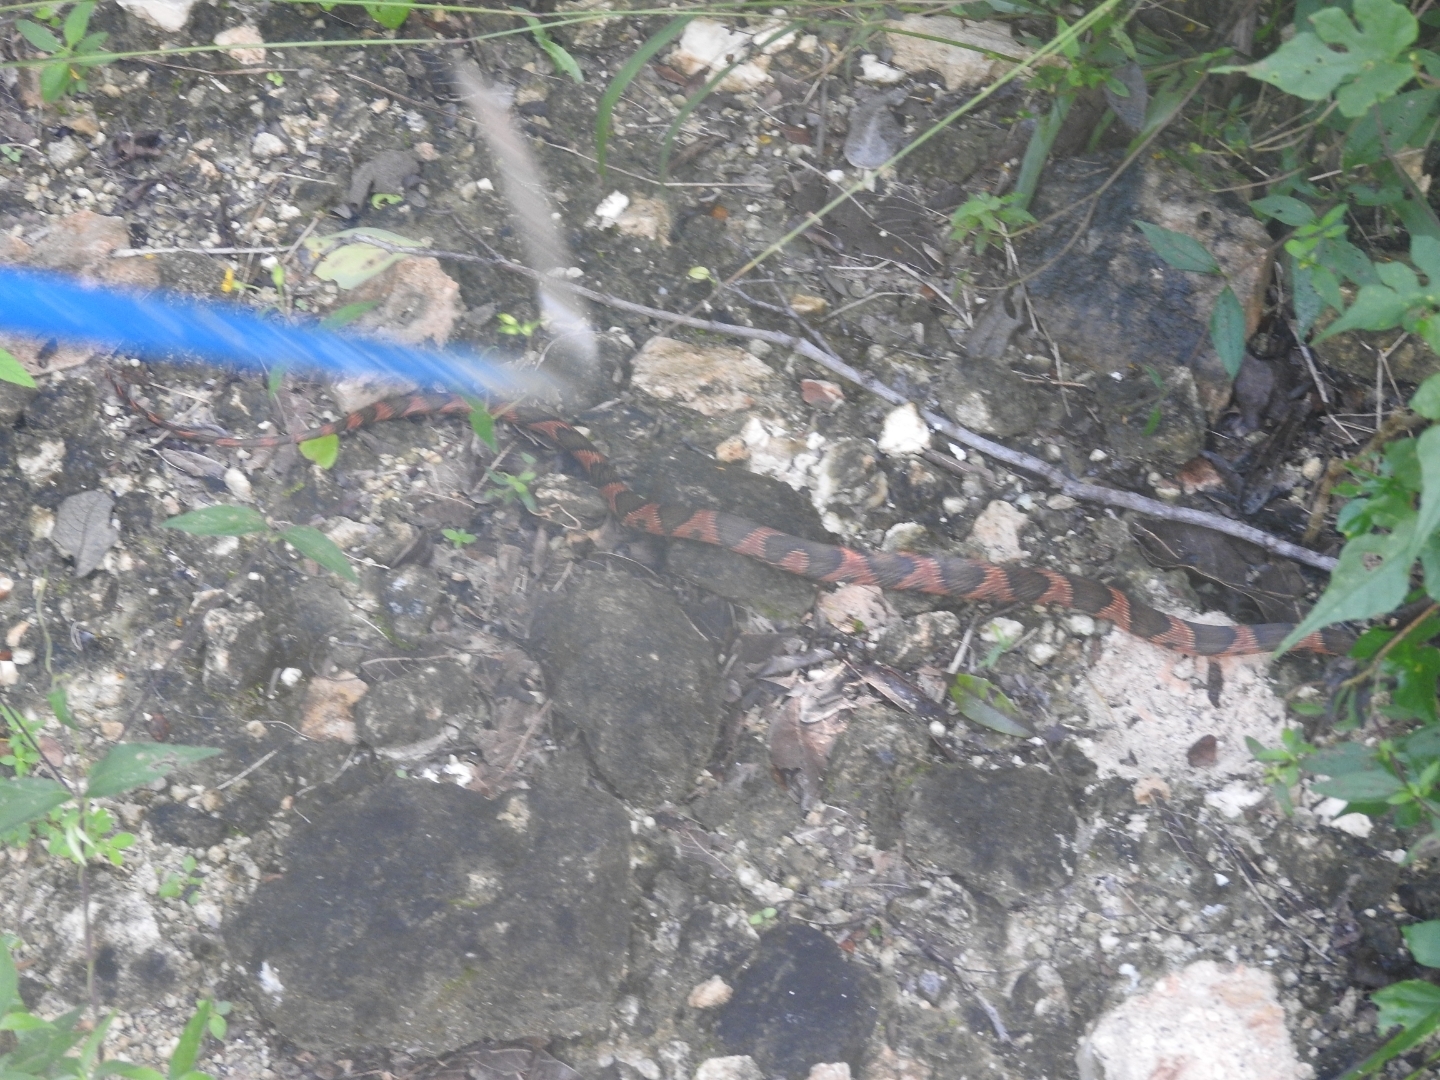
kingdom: Animalia
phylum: Chordata
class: Squamata
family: Colubridae
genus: Leptodeira
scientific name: Leptodeira frenata
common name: Rainforest cat-eyed snake
